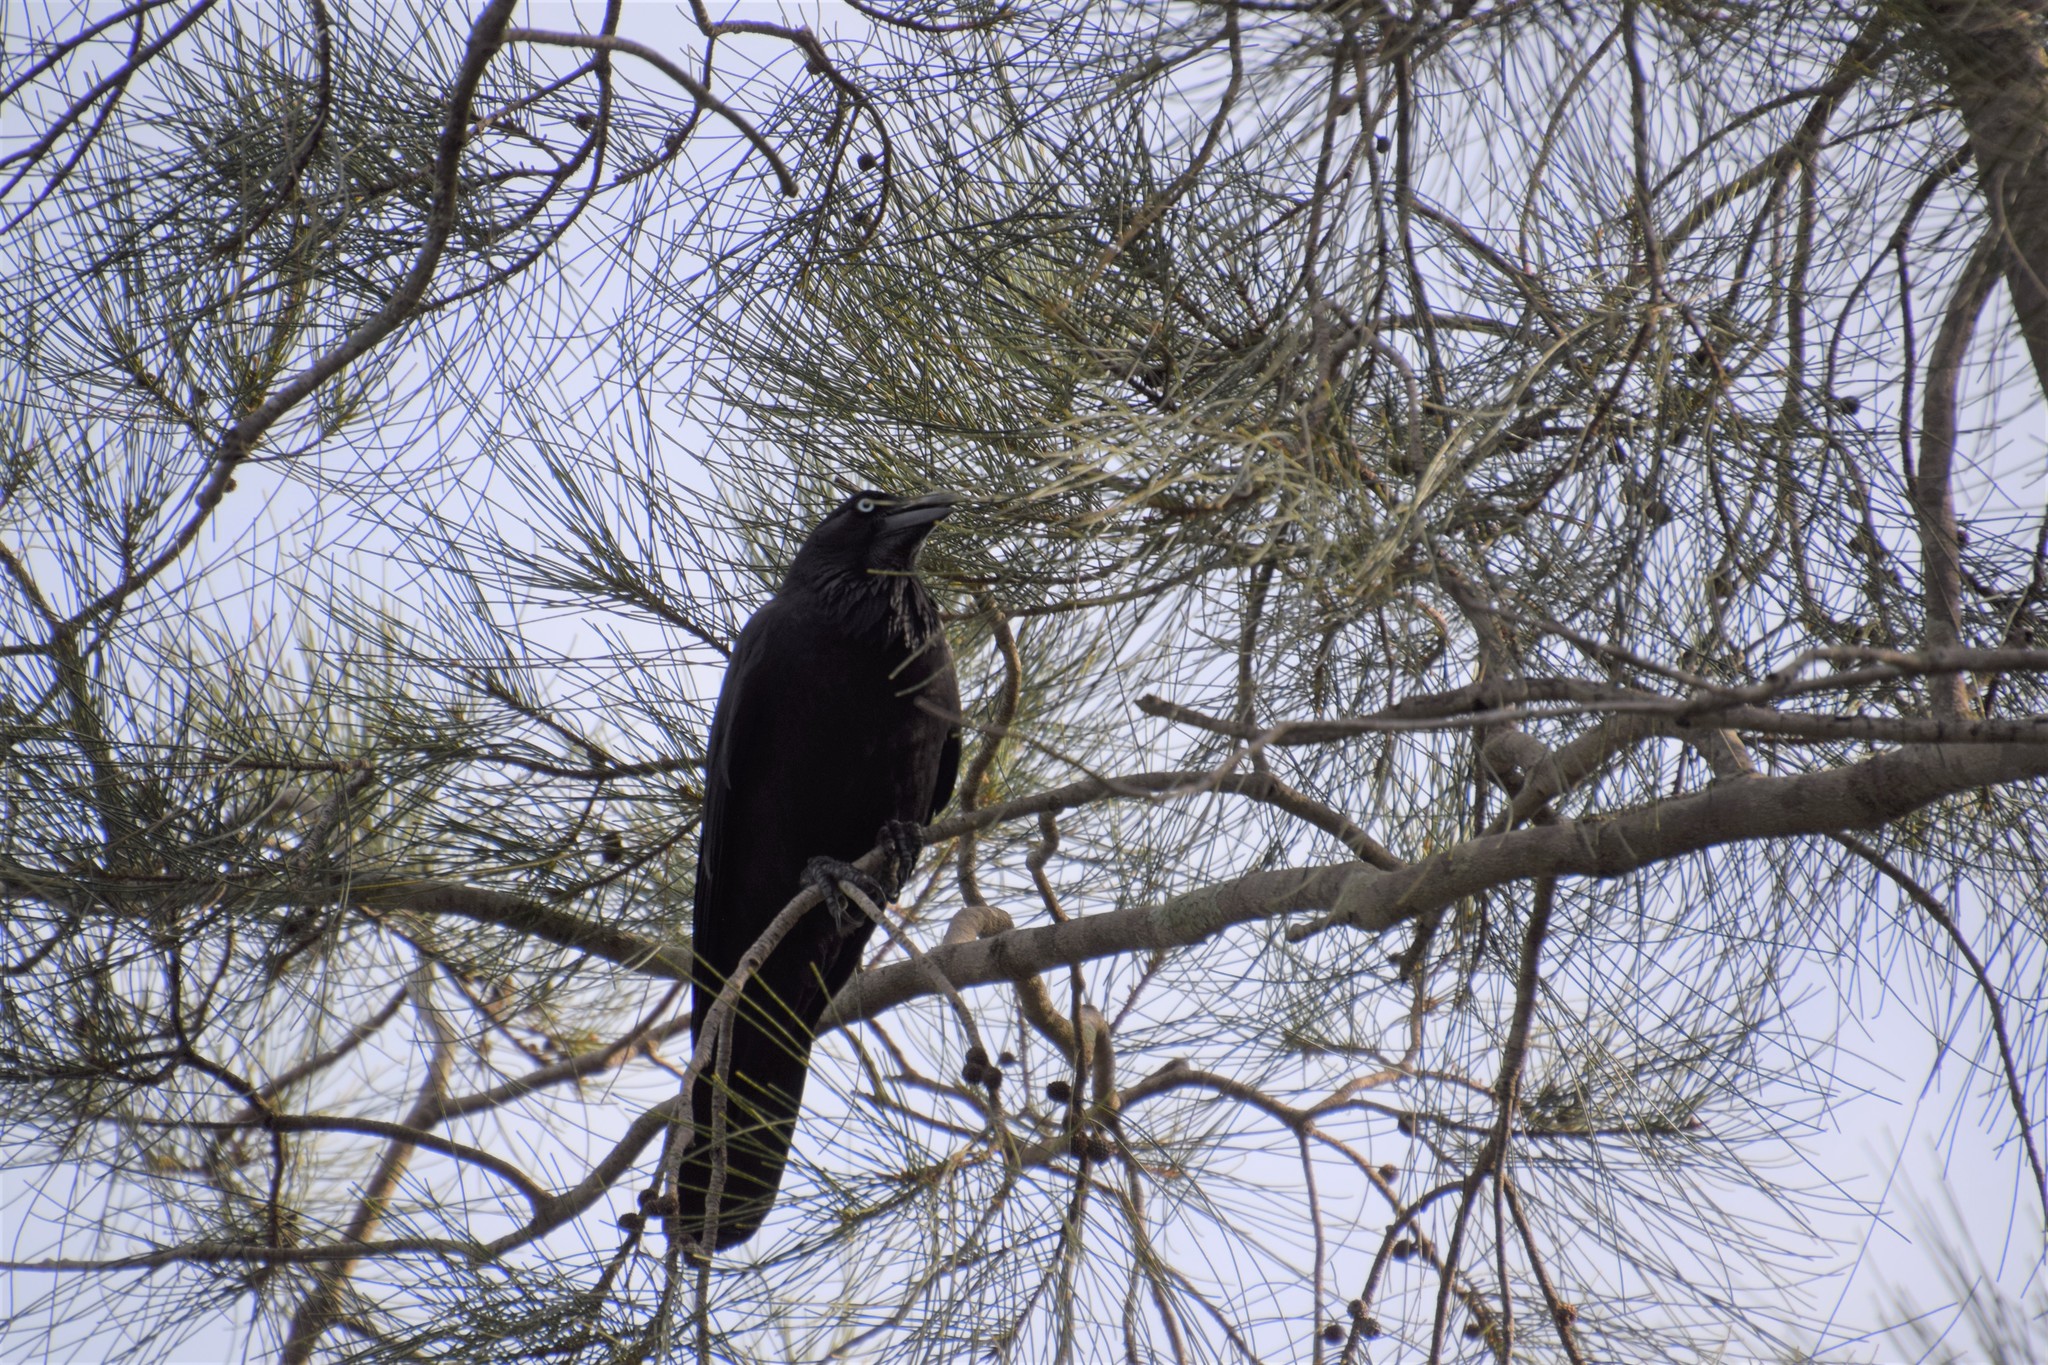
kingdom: Animalia
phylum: Chordata
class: Aves
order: Passeriformes
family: Corvidae
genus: Corvus
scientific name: Corvus coronoides
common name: Australian raven
